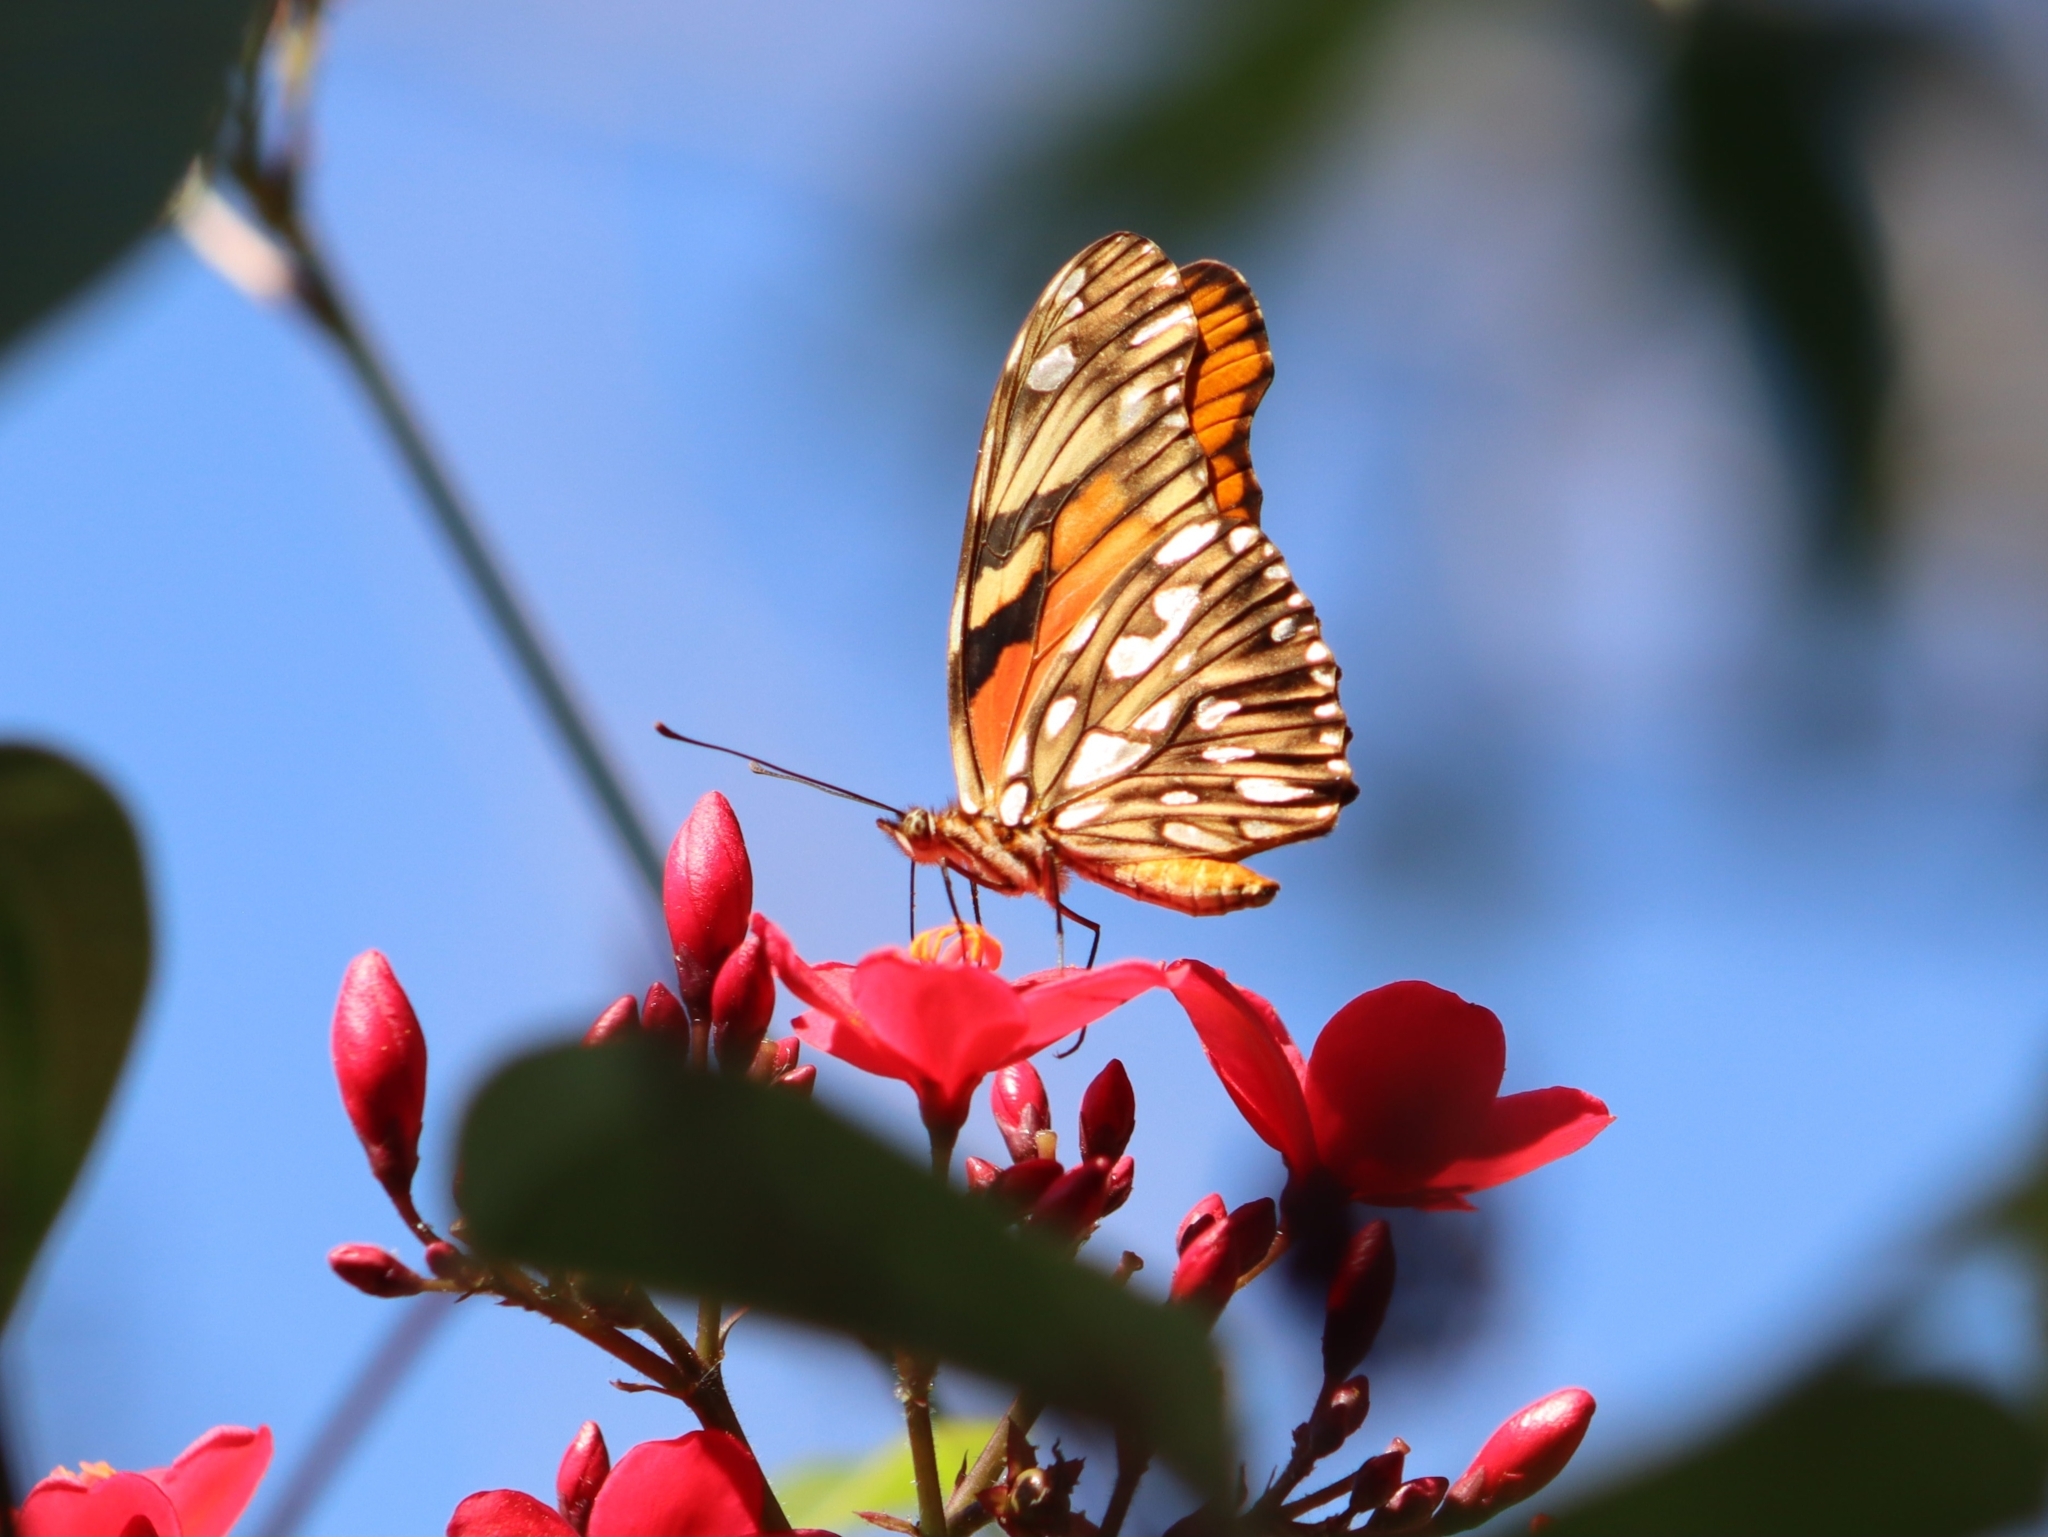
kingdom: Animalia
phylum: Arthropoda
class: Insecta
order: Lepidoptera
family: Nymphalidae
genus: Dione
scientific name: Dione juno
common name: Juno silverspot
